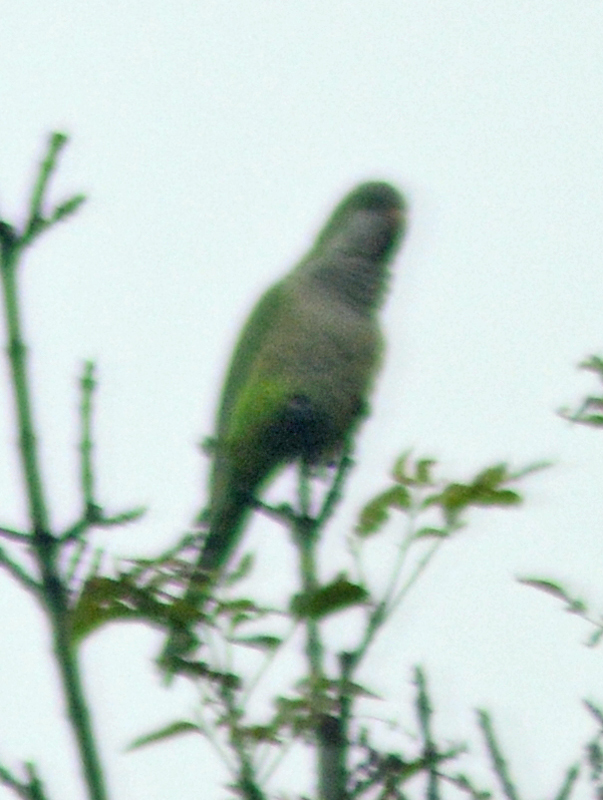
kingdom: Animalia
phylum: Chordata
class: Aves
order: Psittaciformes
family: Psittacidae
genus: Myiopsitta
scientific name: Myiopsitta monachus
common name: Monk parakeet
